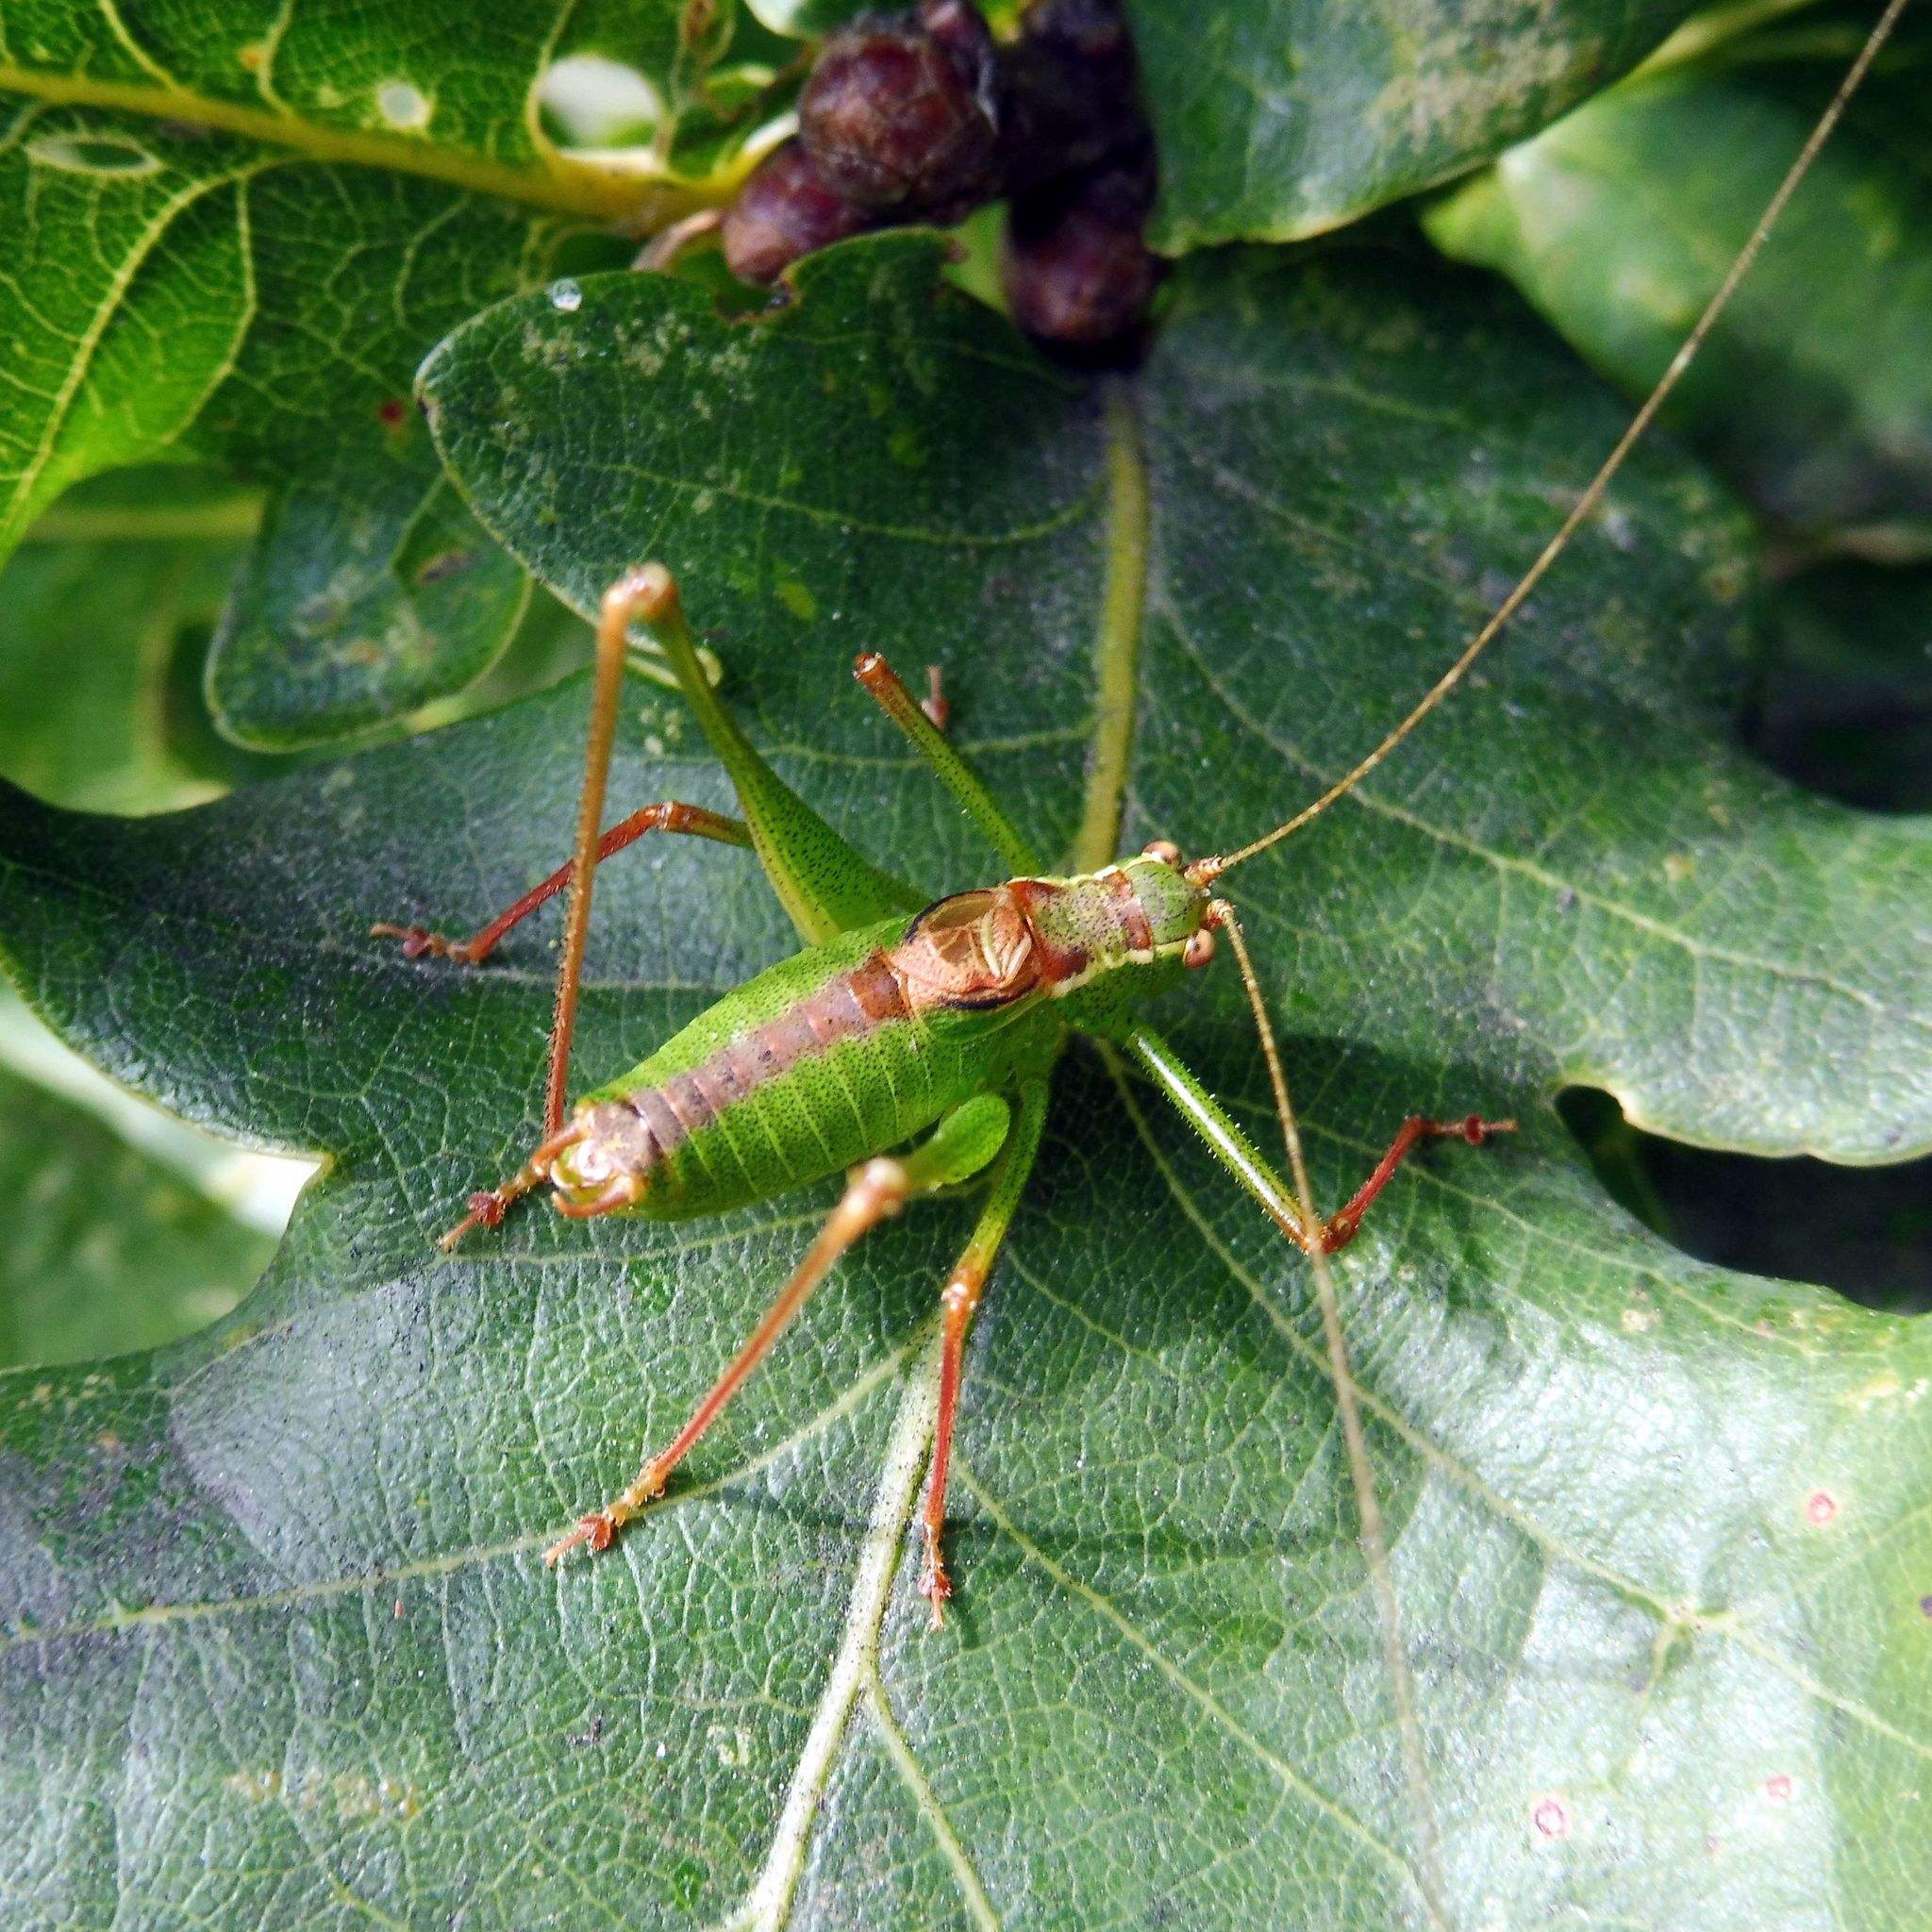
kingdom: Animalia
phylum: Arthropoda
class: Insecta
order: Orthoptera
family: Tettigoniidae
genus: Leptophyes
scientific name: Leptophyes punctatissima
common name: Speckled bush-cricket
